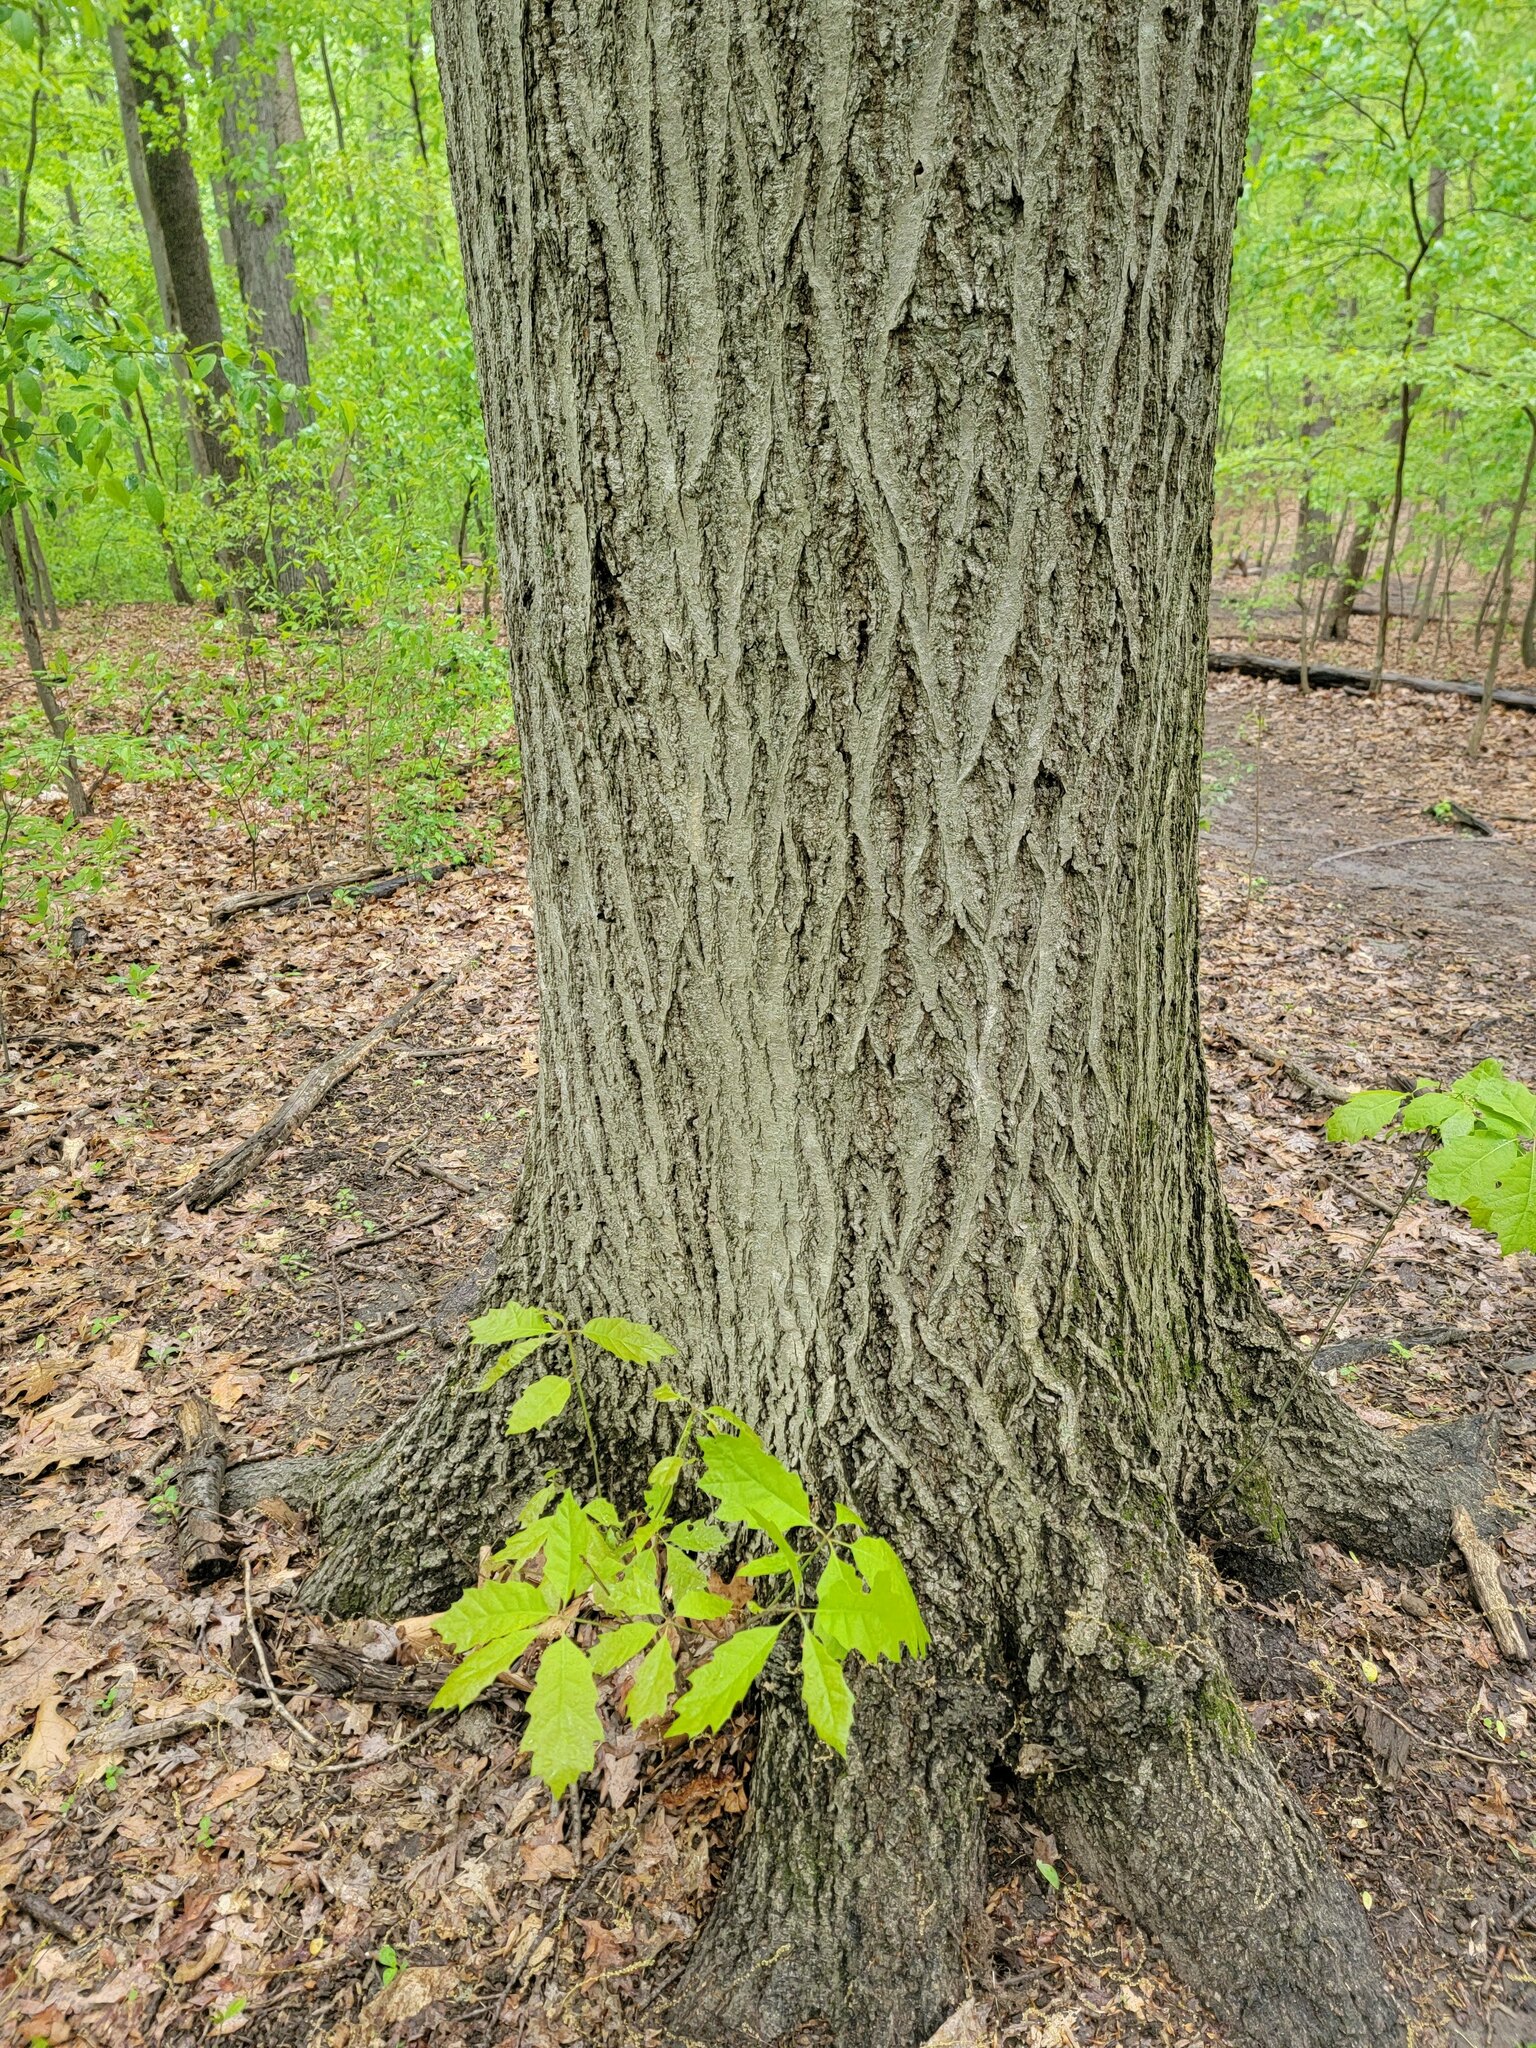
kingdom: Plantae
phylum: Tracheophyta
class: Magnoliopsida
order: Fagales
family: Fagaceae
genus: Quercus
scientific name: Quercus rubra
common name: Red oak
